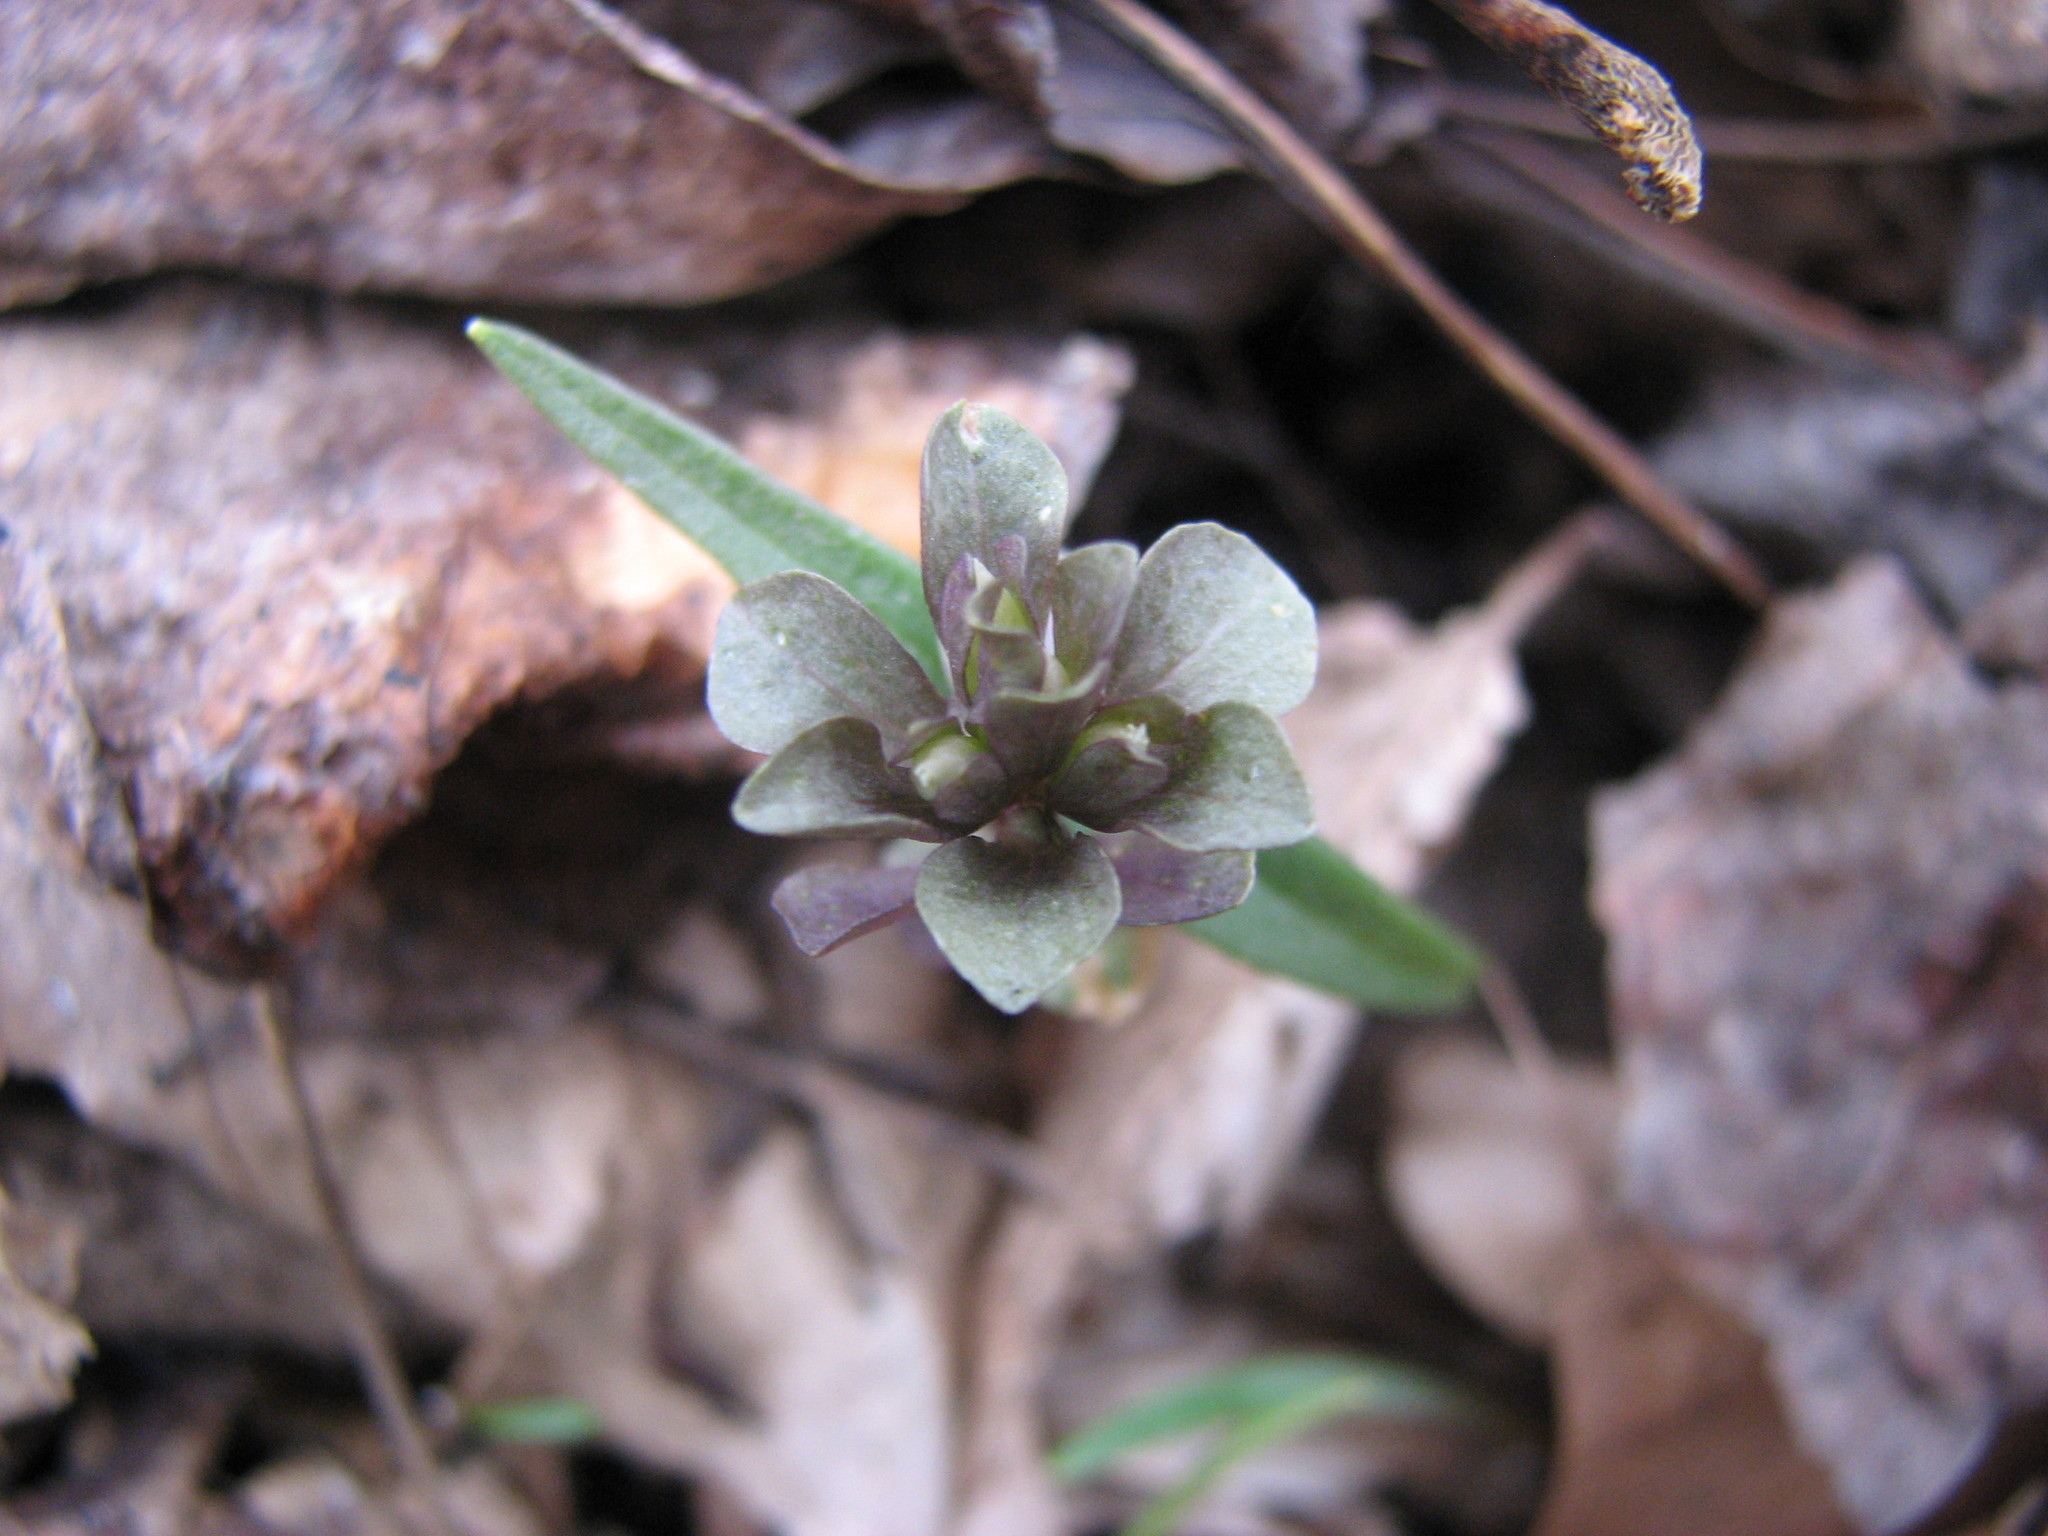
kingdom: Plantae
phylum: Tracheophyta
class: Magnoliopsida
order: Gentianales
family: Gentianaceae
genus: Obolaria
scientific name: Obolaria virginica
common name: Pennywort
